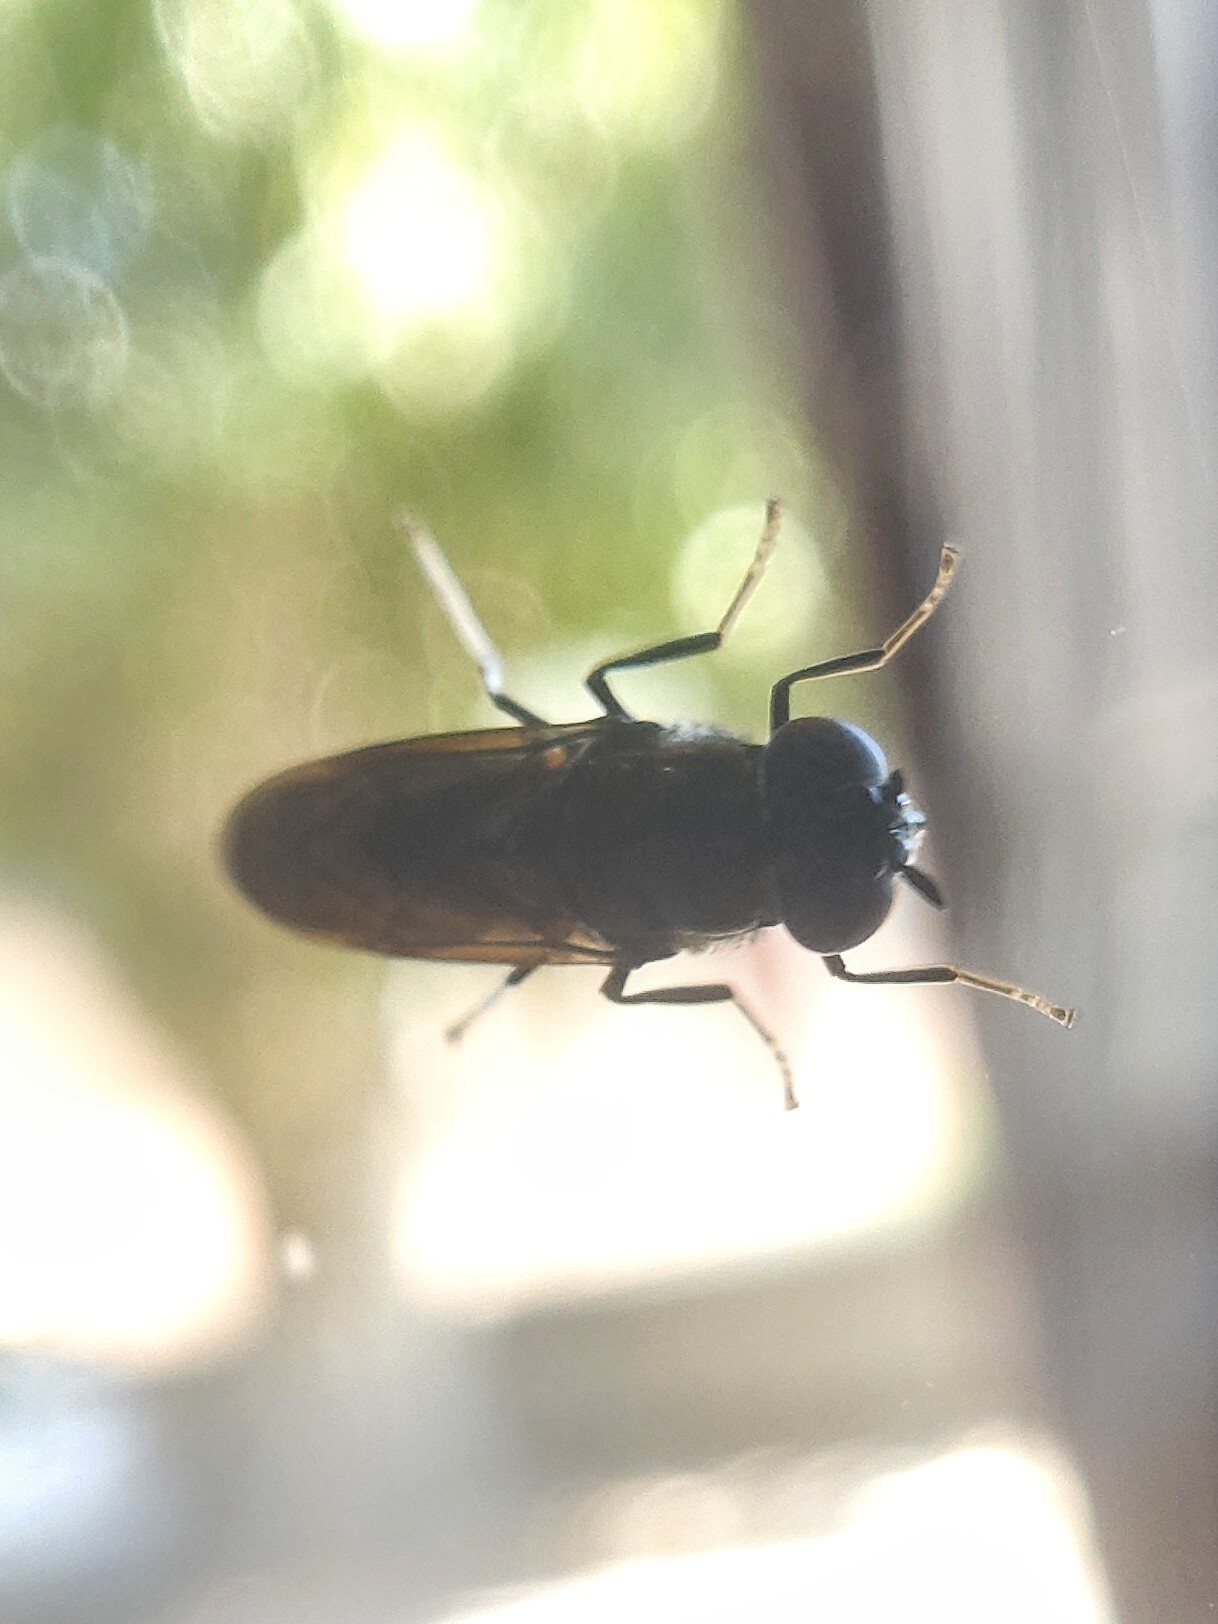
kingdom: Animalia
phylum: Arthropoda
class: Insecta
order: Diptera
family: Stratiomyidae
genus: Hermetia
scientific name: Hermetia illucens
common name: Black soldier fly
